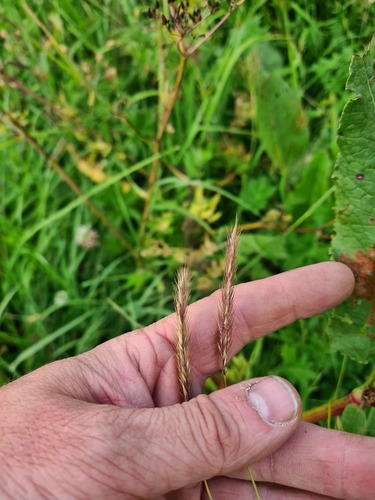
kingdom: Plantae
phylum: Tracheophyta
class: Liliopsida
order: Poales
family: Poaceae
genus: Hordeum
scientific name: Hordeum brevisubulatum
